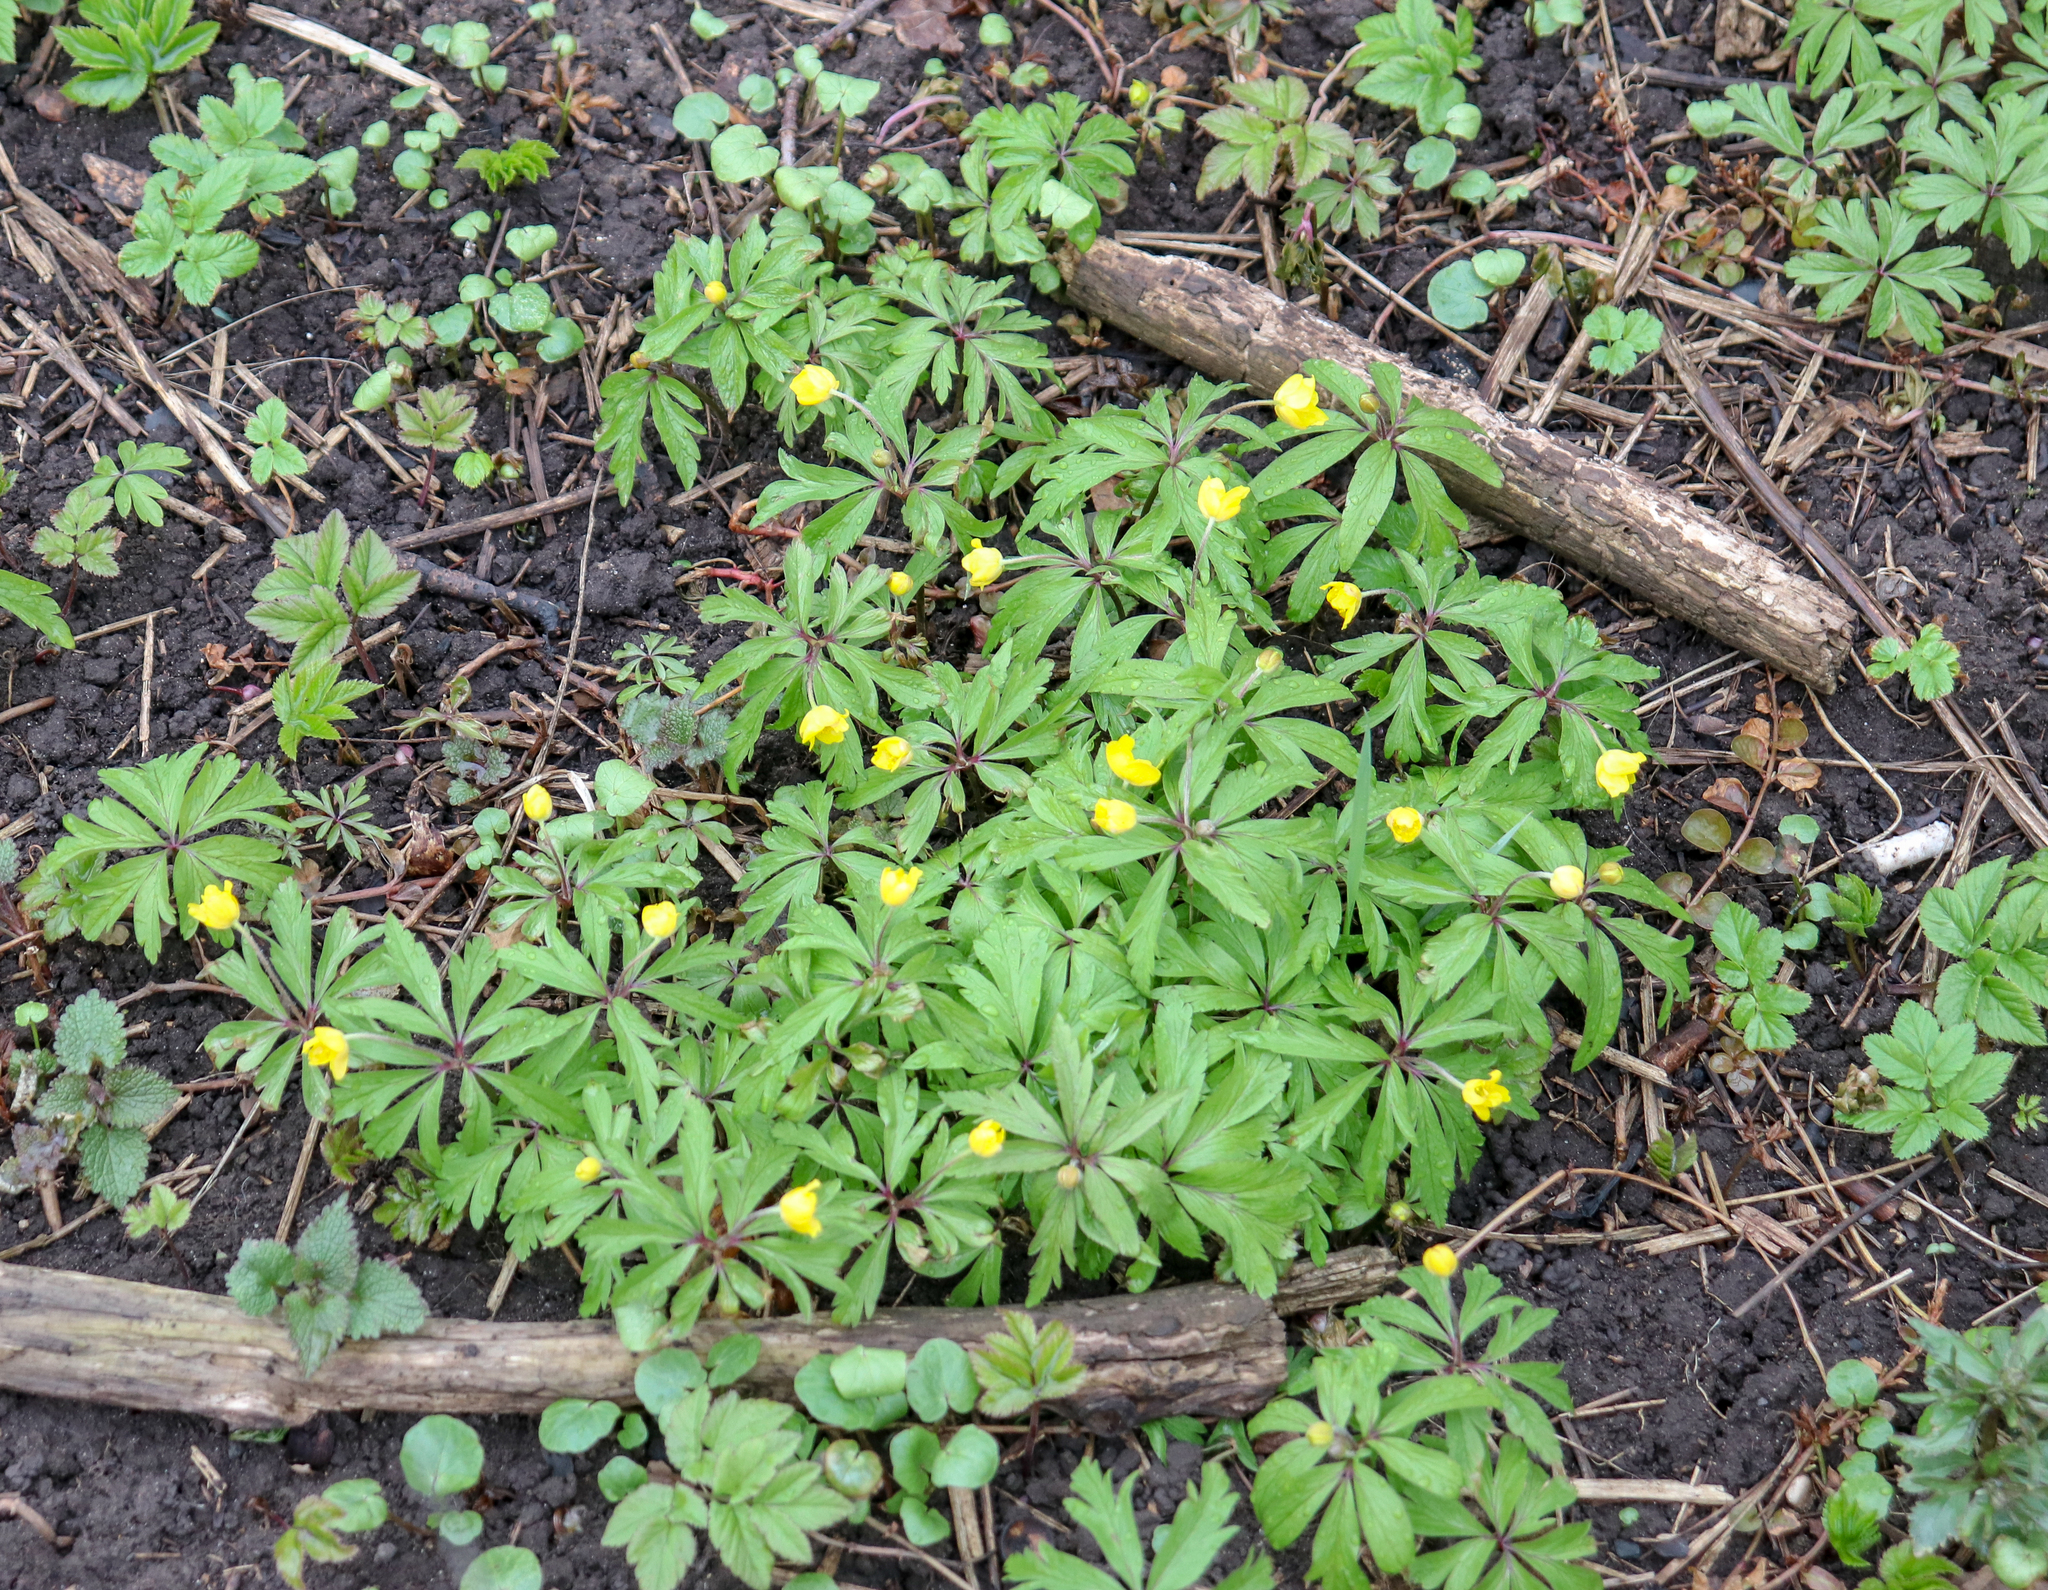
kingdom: Plantae
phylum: Tracheophyta
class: Magnoliopsida
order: Ranunculales
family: Ranunculaceae
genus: Anemone
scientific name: Anemone ranunculoides
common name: Yellow anemone
